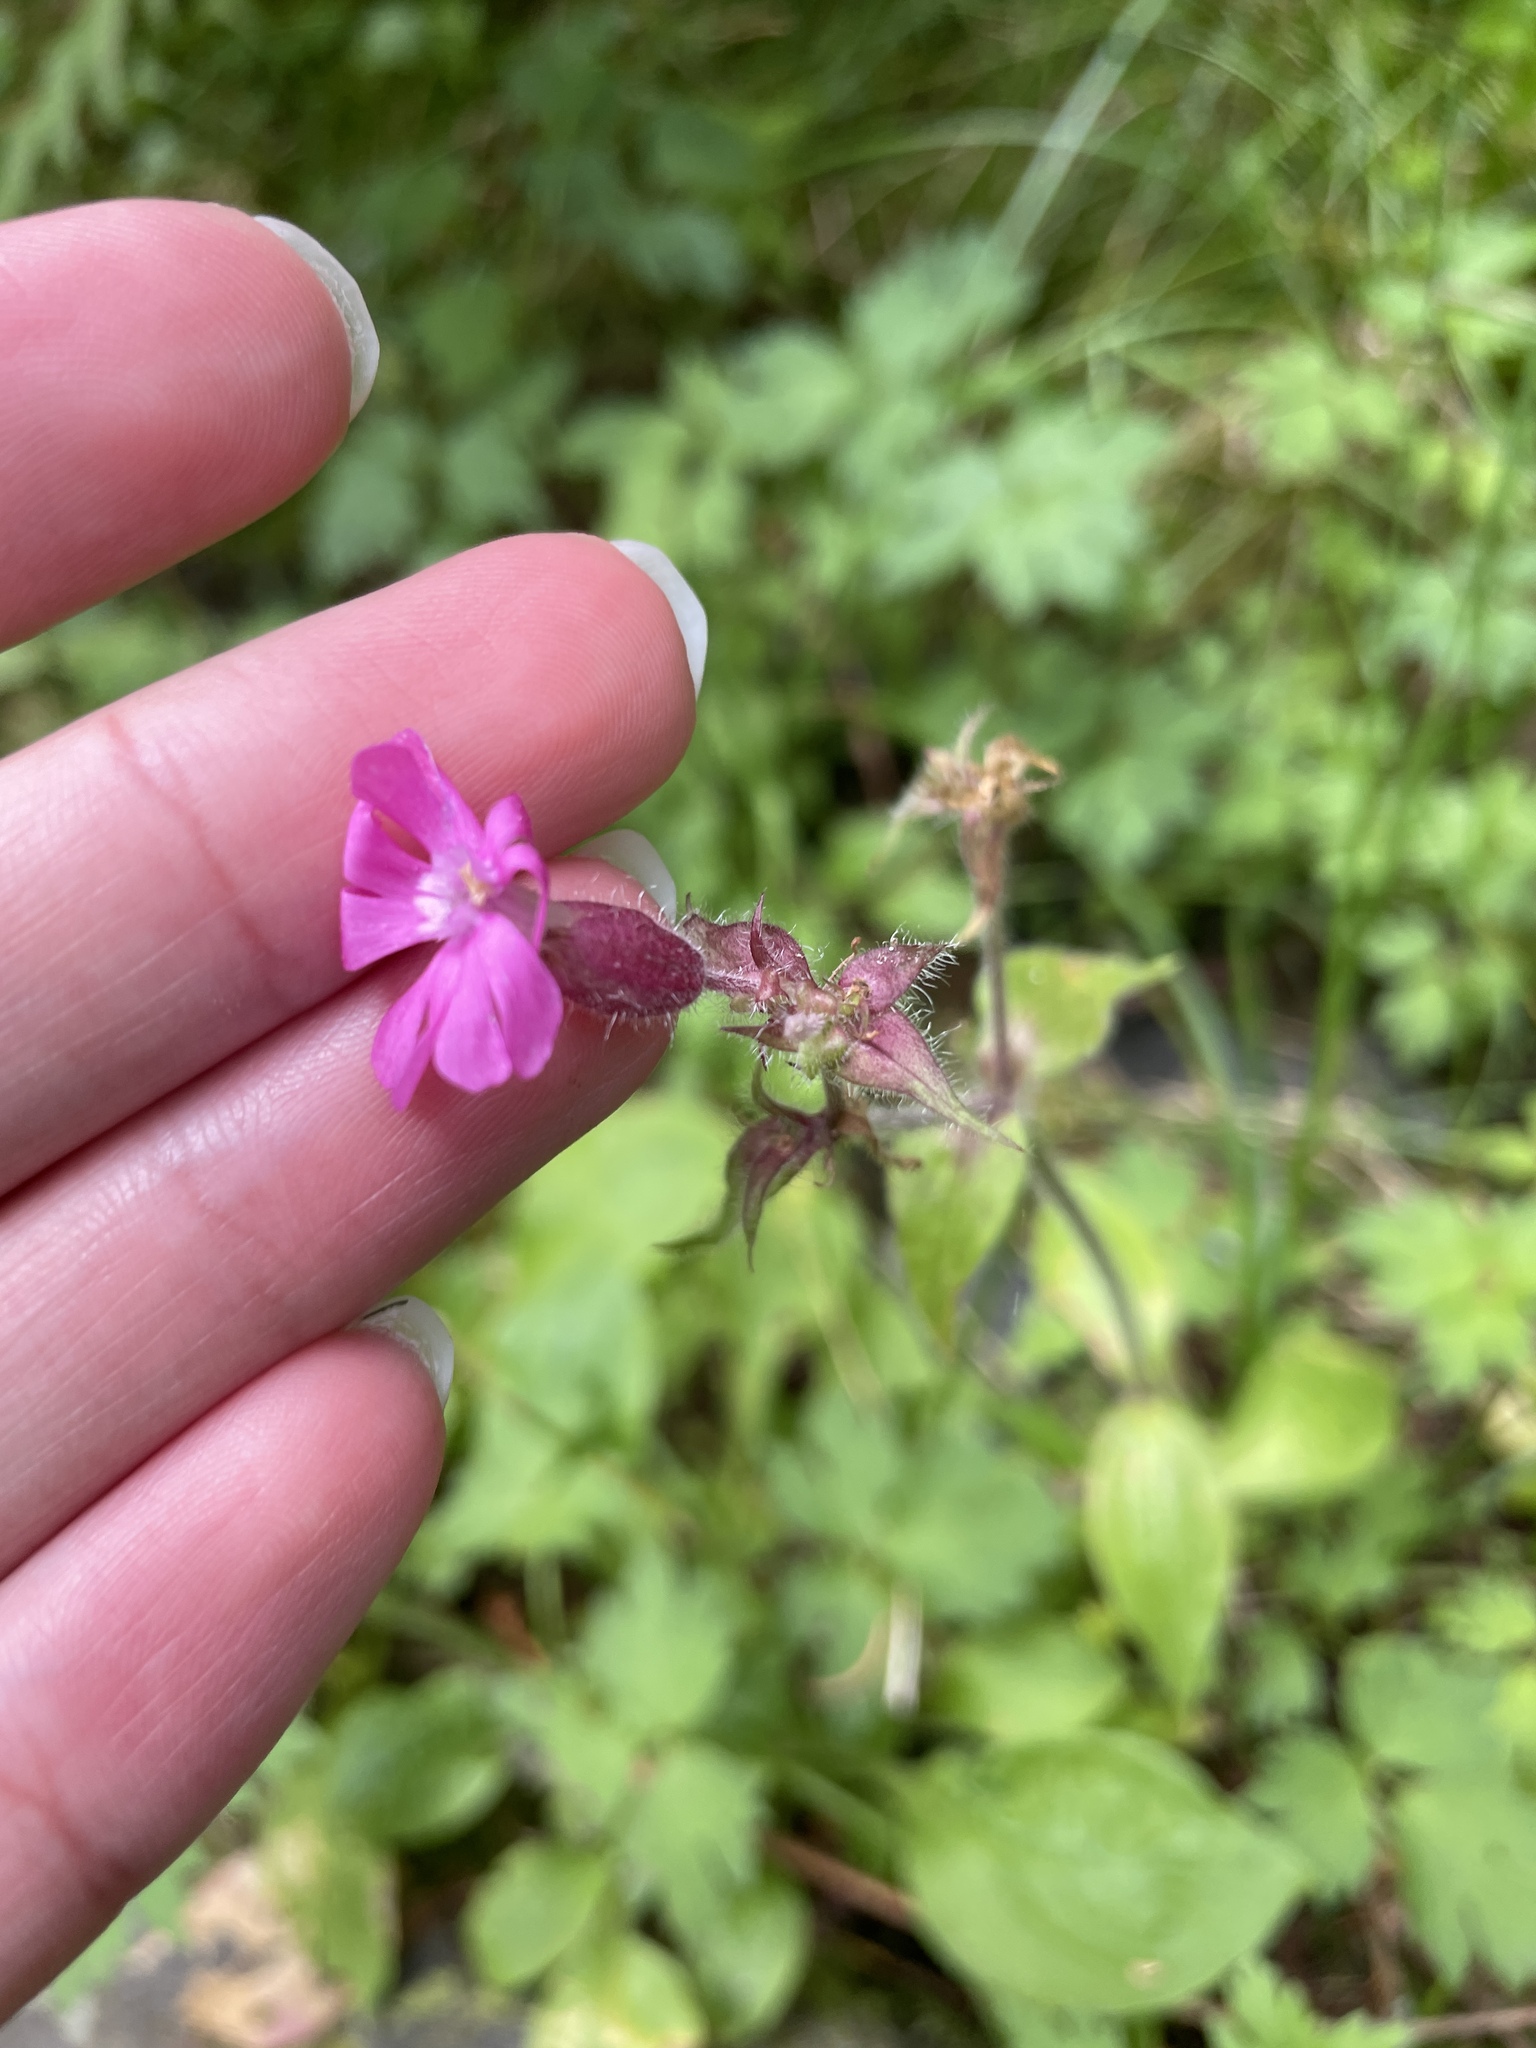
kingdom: Plantae
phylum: Tracheophyta
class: Magnoliopsida
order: Caryophyllales
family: Caryophyllaceae
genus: Silene
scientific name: Silene dioica
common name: Red campion
